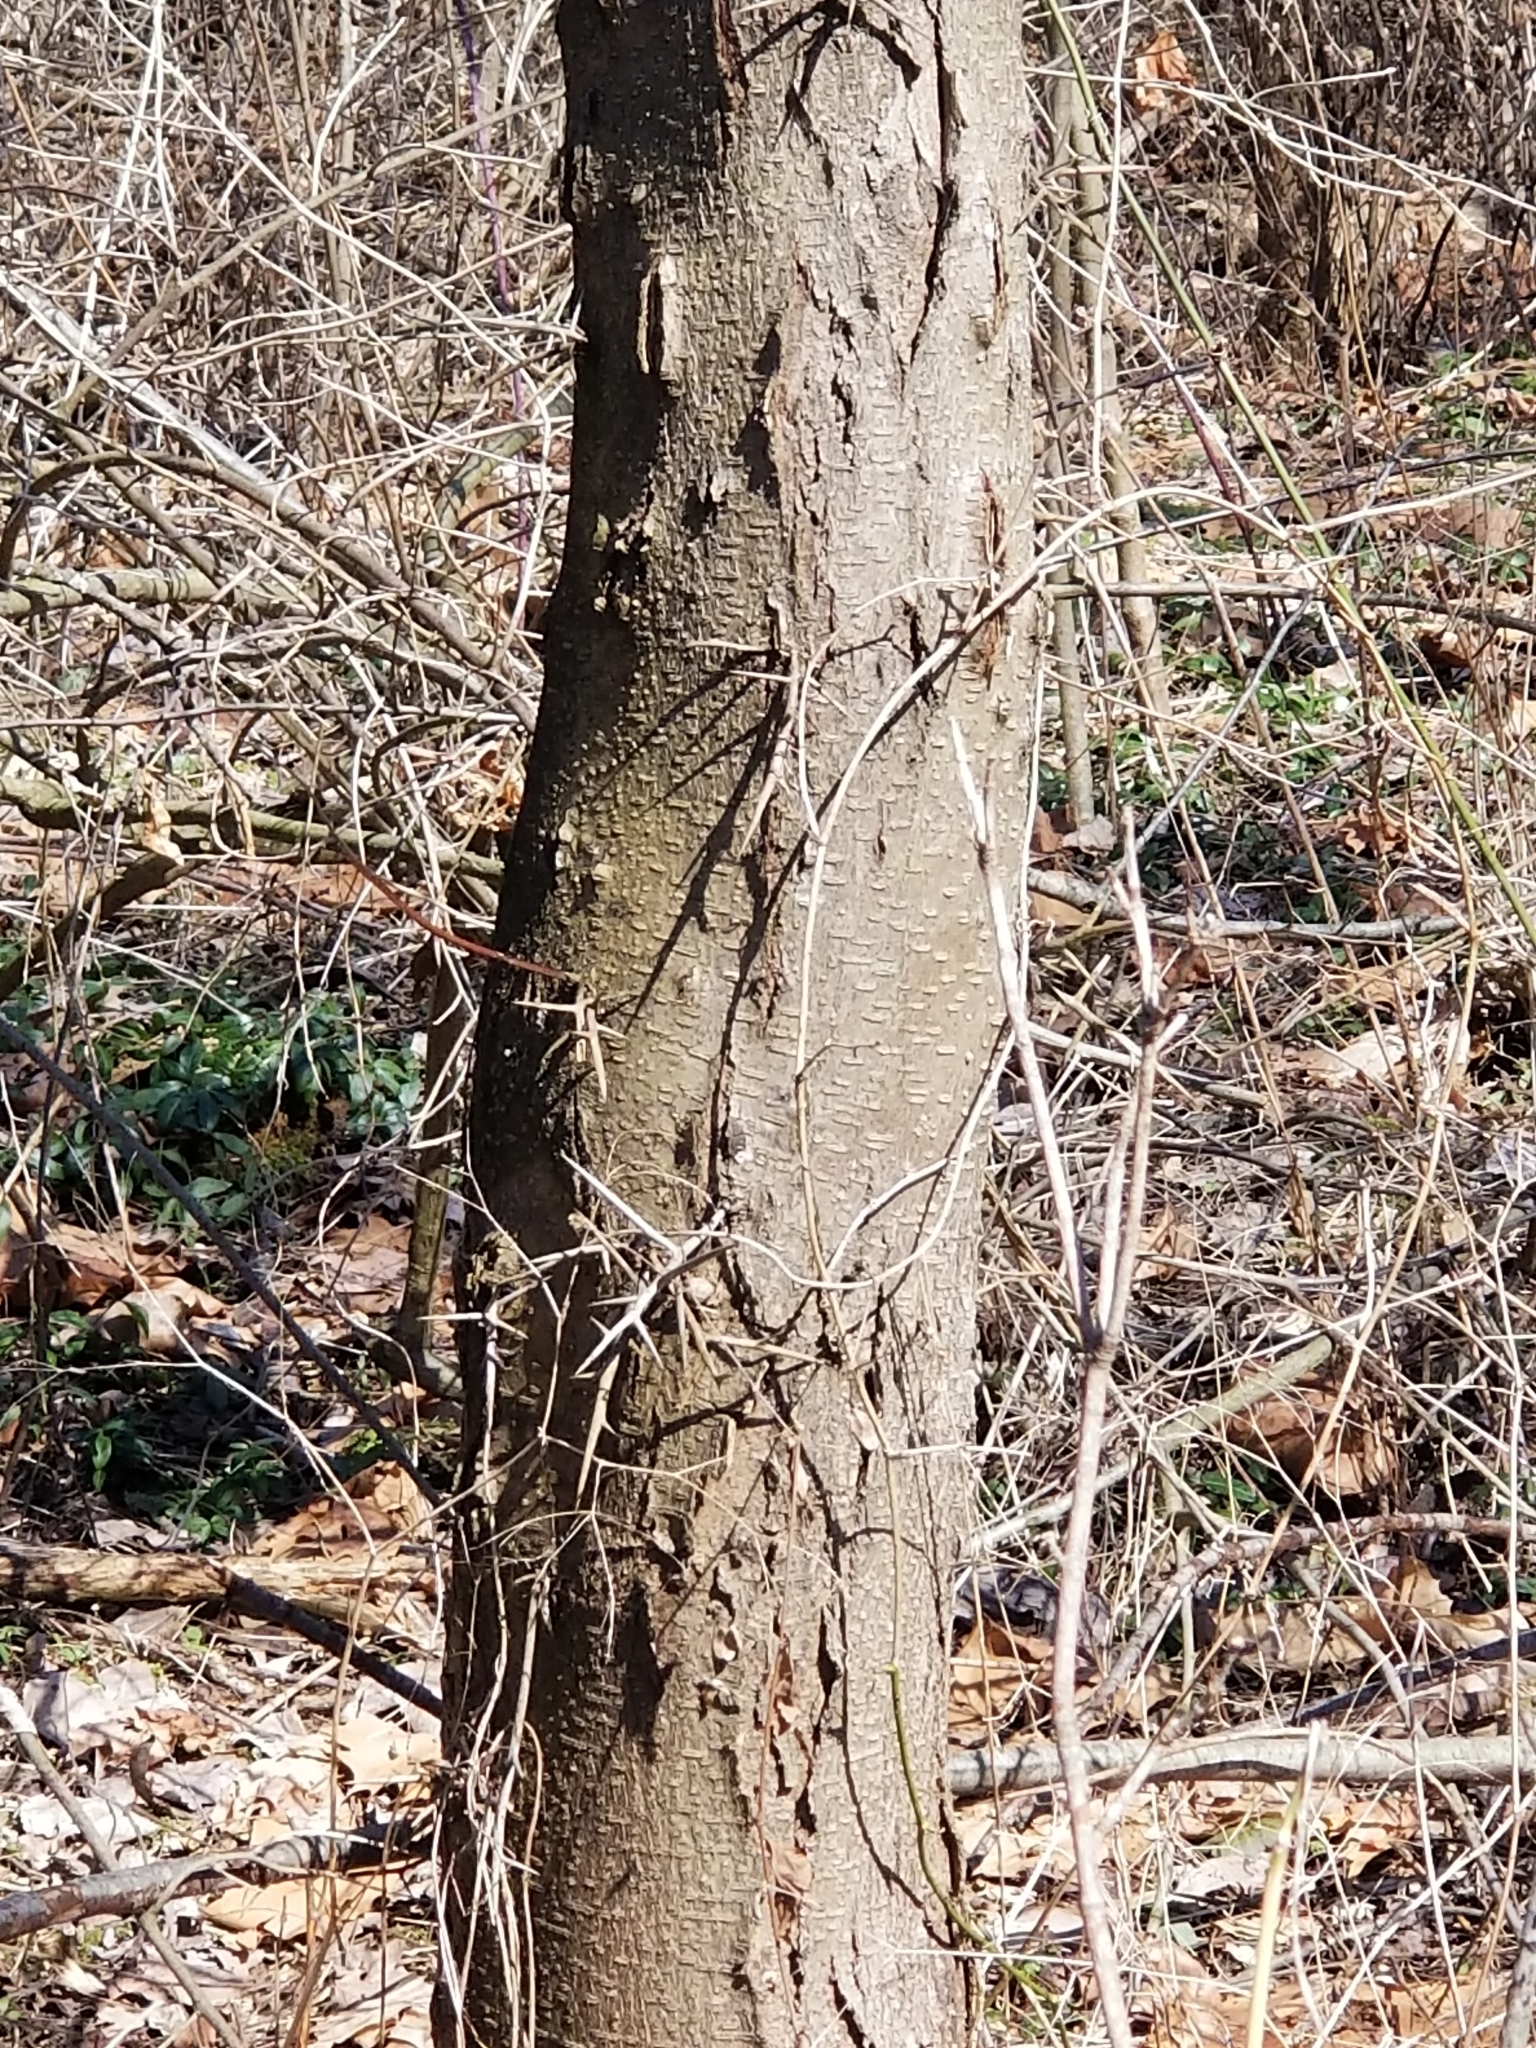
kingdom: Plantae
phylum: Tracheophyta
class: Magnoliopsida
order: Fabales
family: Fabaceae
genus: Gleditsia
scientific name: Gleditsia triacanthos
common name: Common honeylocust
